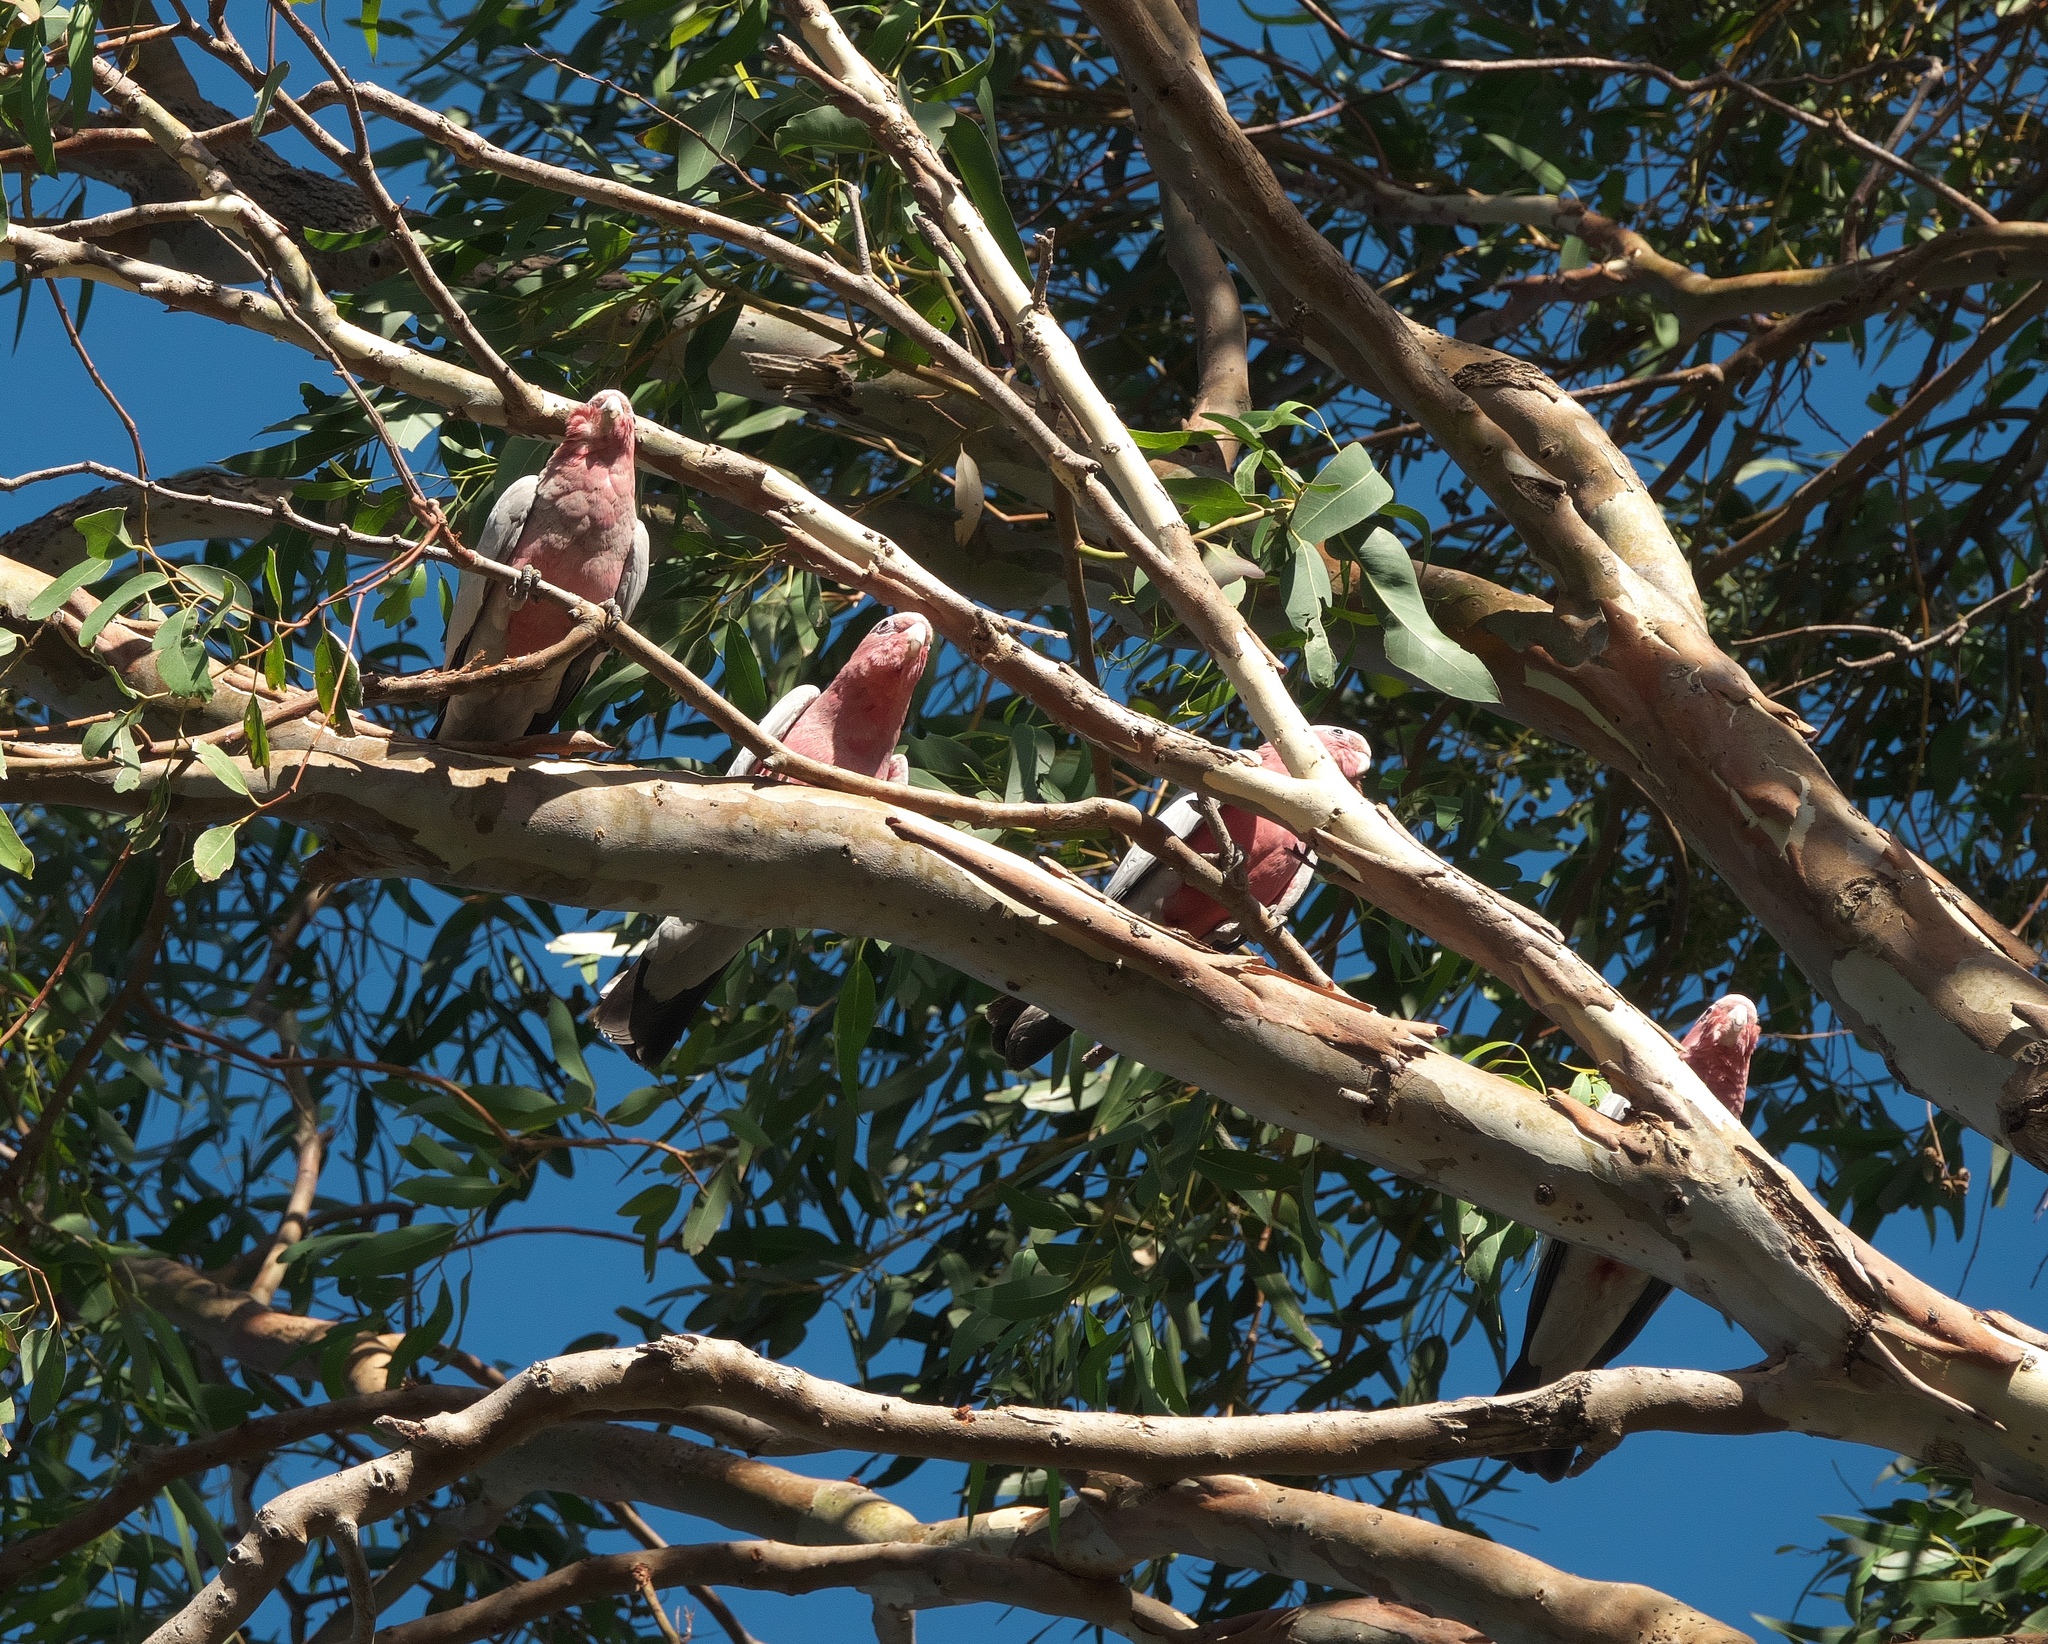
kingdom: Animalia
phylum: Chordata
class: Aves
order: Psittaciformes
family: Psittacidae
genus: Eolophus
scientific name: Eolophus roseicapilla
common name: Galah
